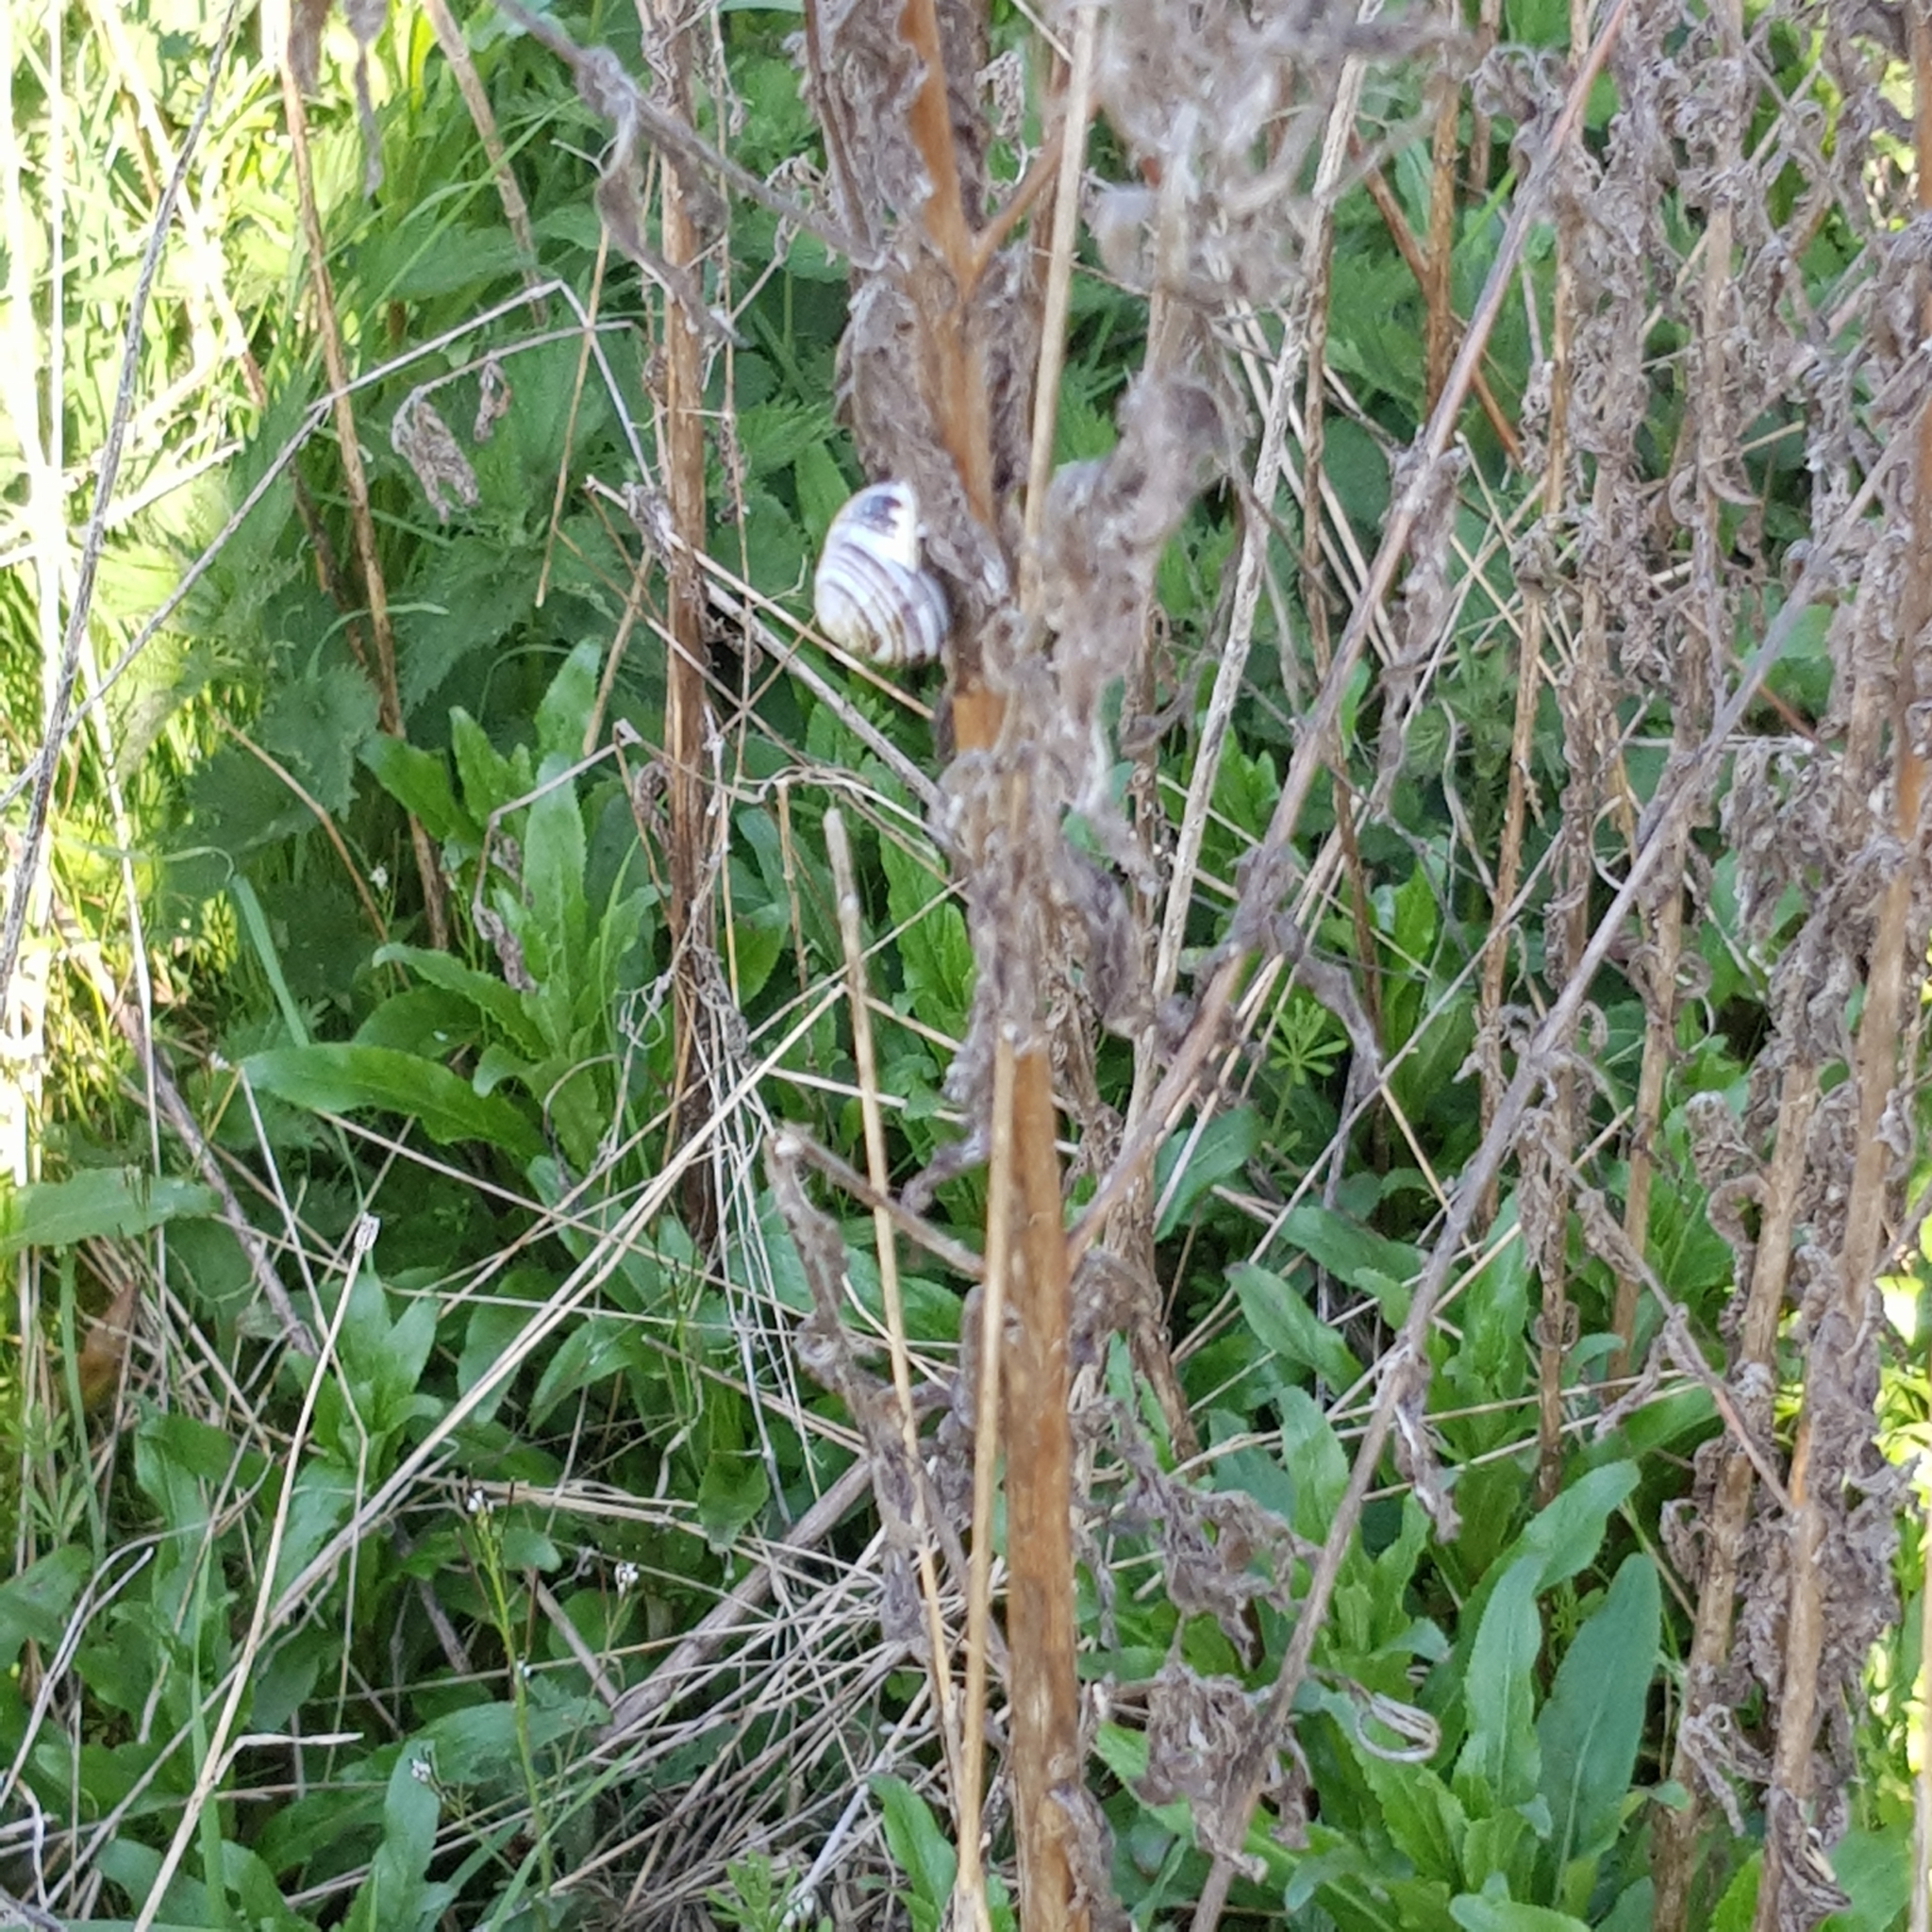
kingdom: Animalia
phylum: Mollusca
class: Gastropoda
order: Stylommatophora
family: Helicidae
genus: Cepaea
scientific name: Cepaea hortensis
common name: White-lip gardensnail
